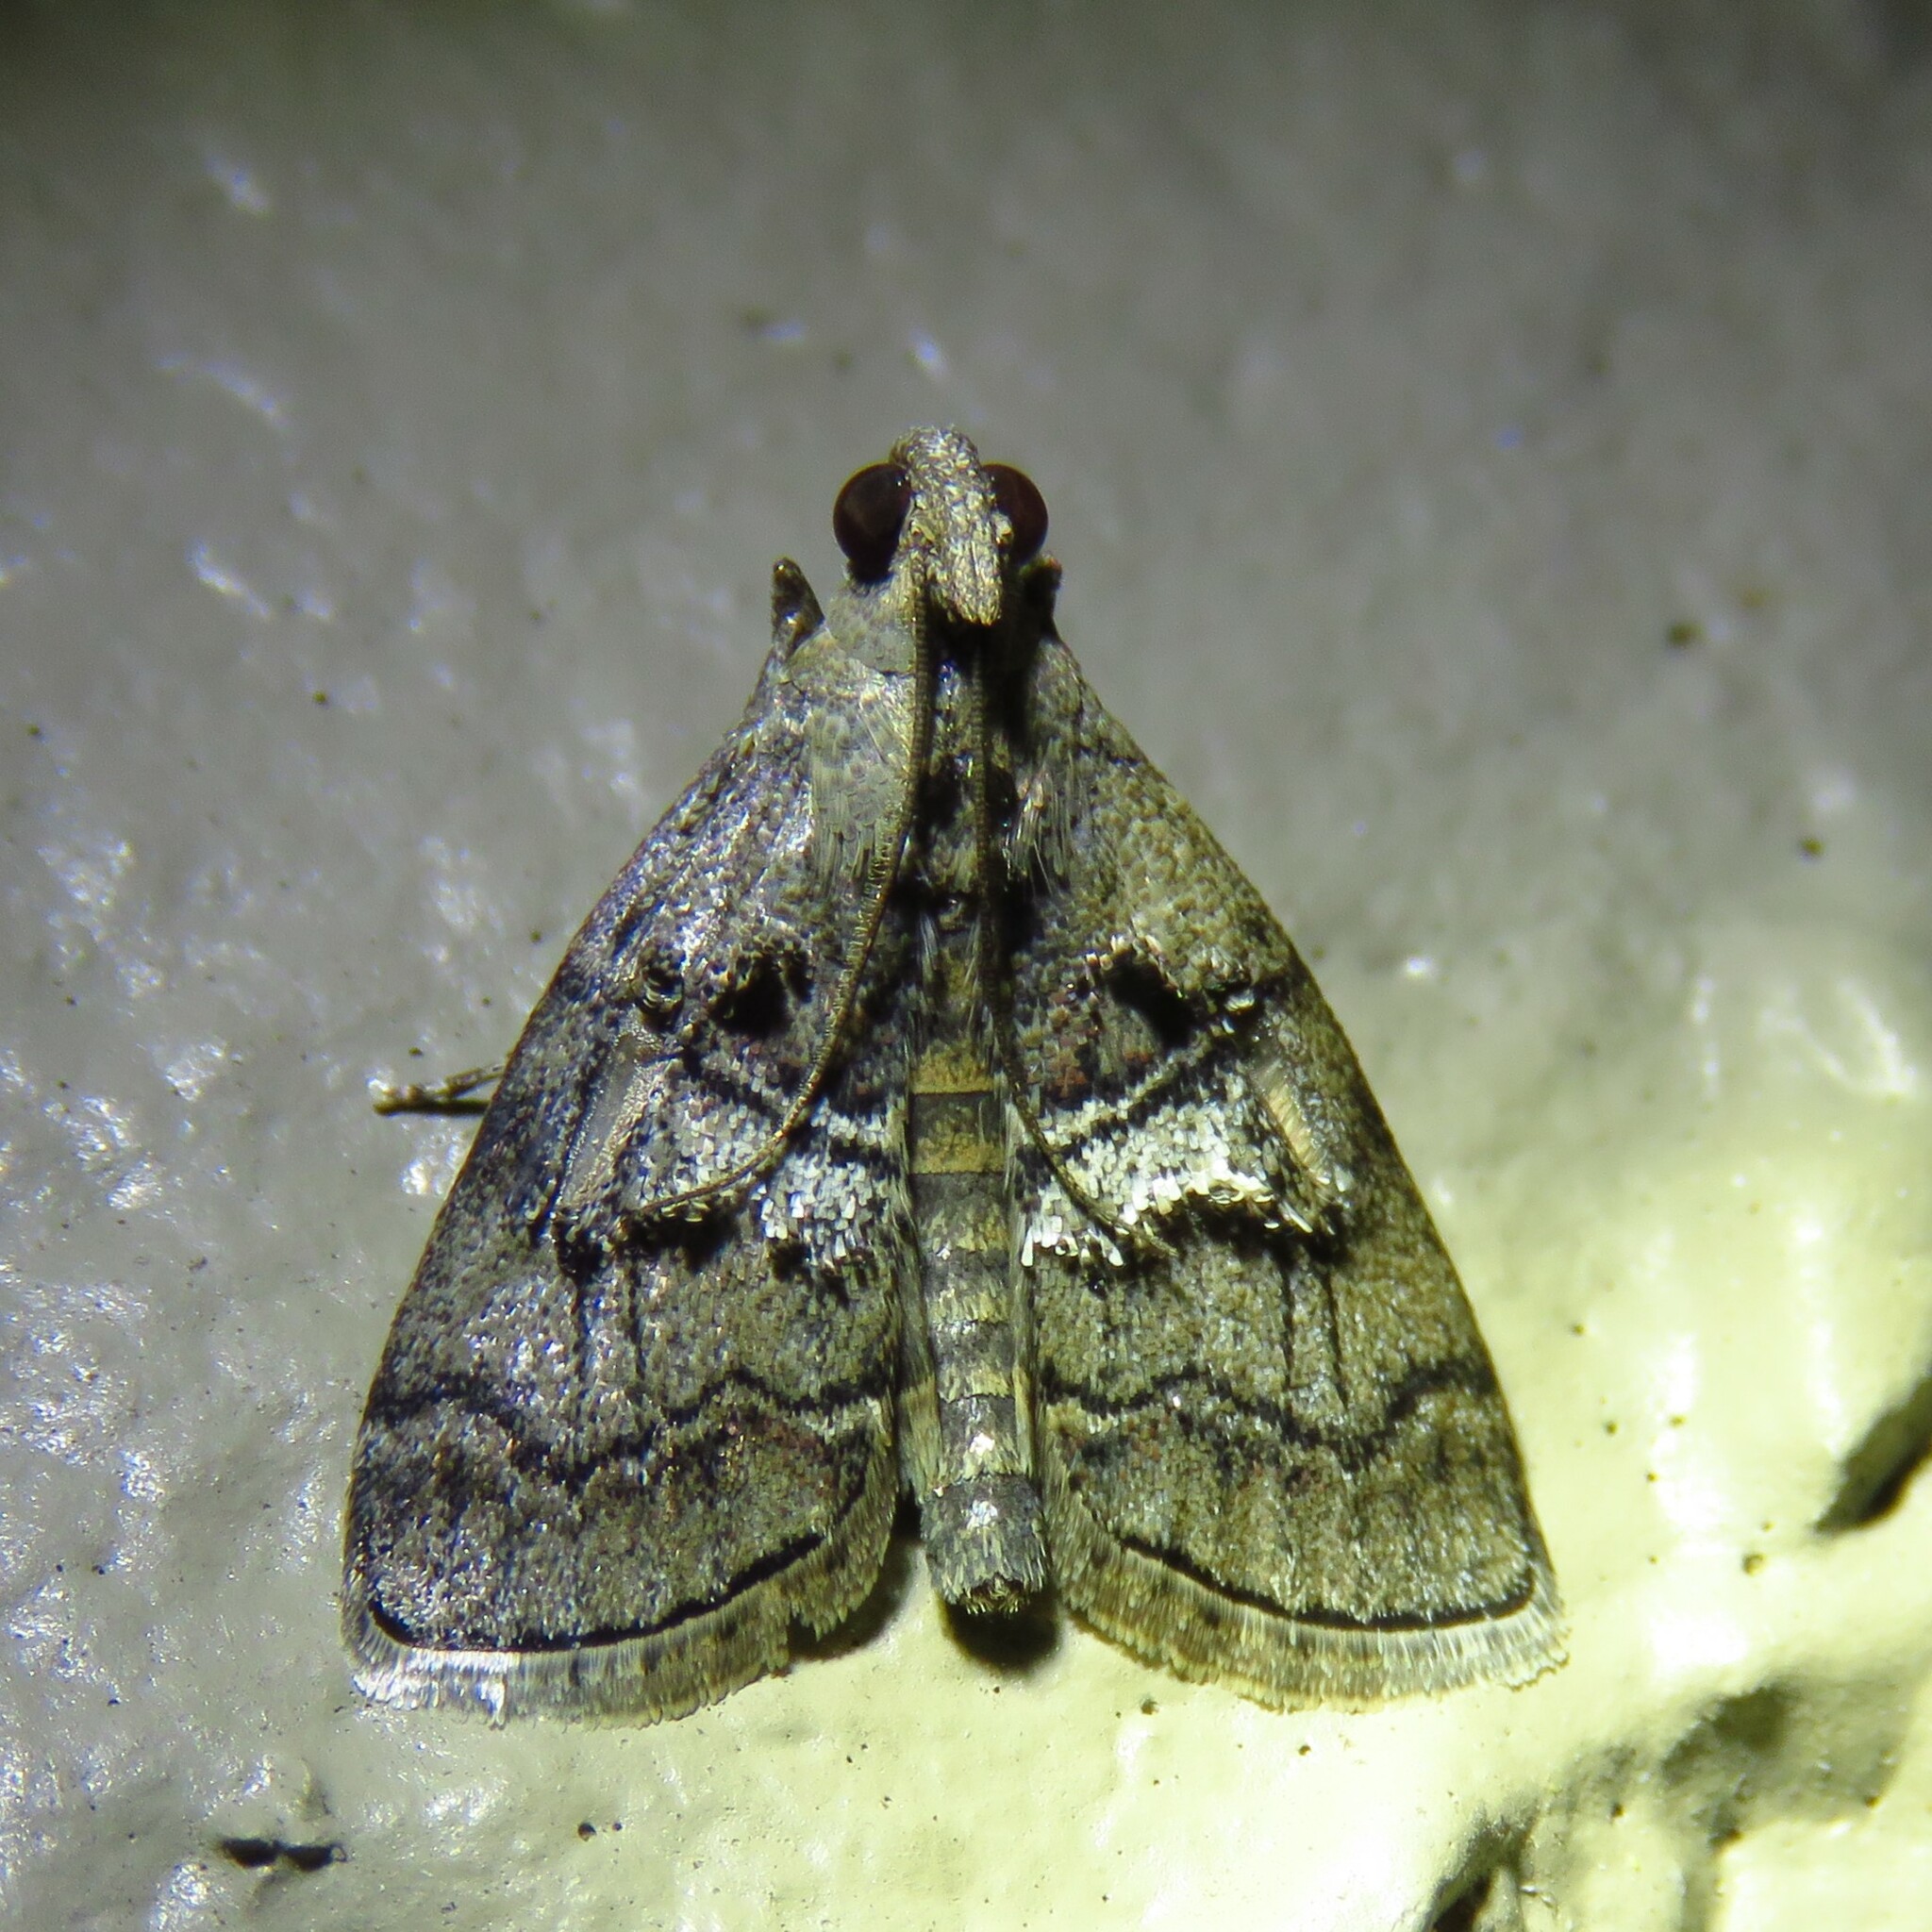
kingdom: Animalia
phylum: Arthropoda
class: Insecta
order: Lepidoptera
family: Pyralidae
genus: Pococera
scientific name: Pococera asperatella
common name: Maple webworm moth
